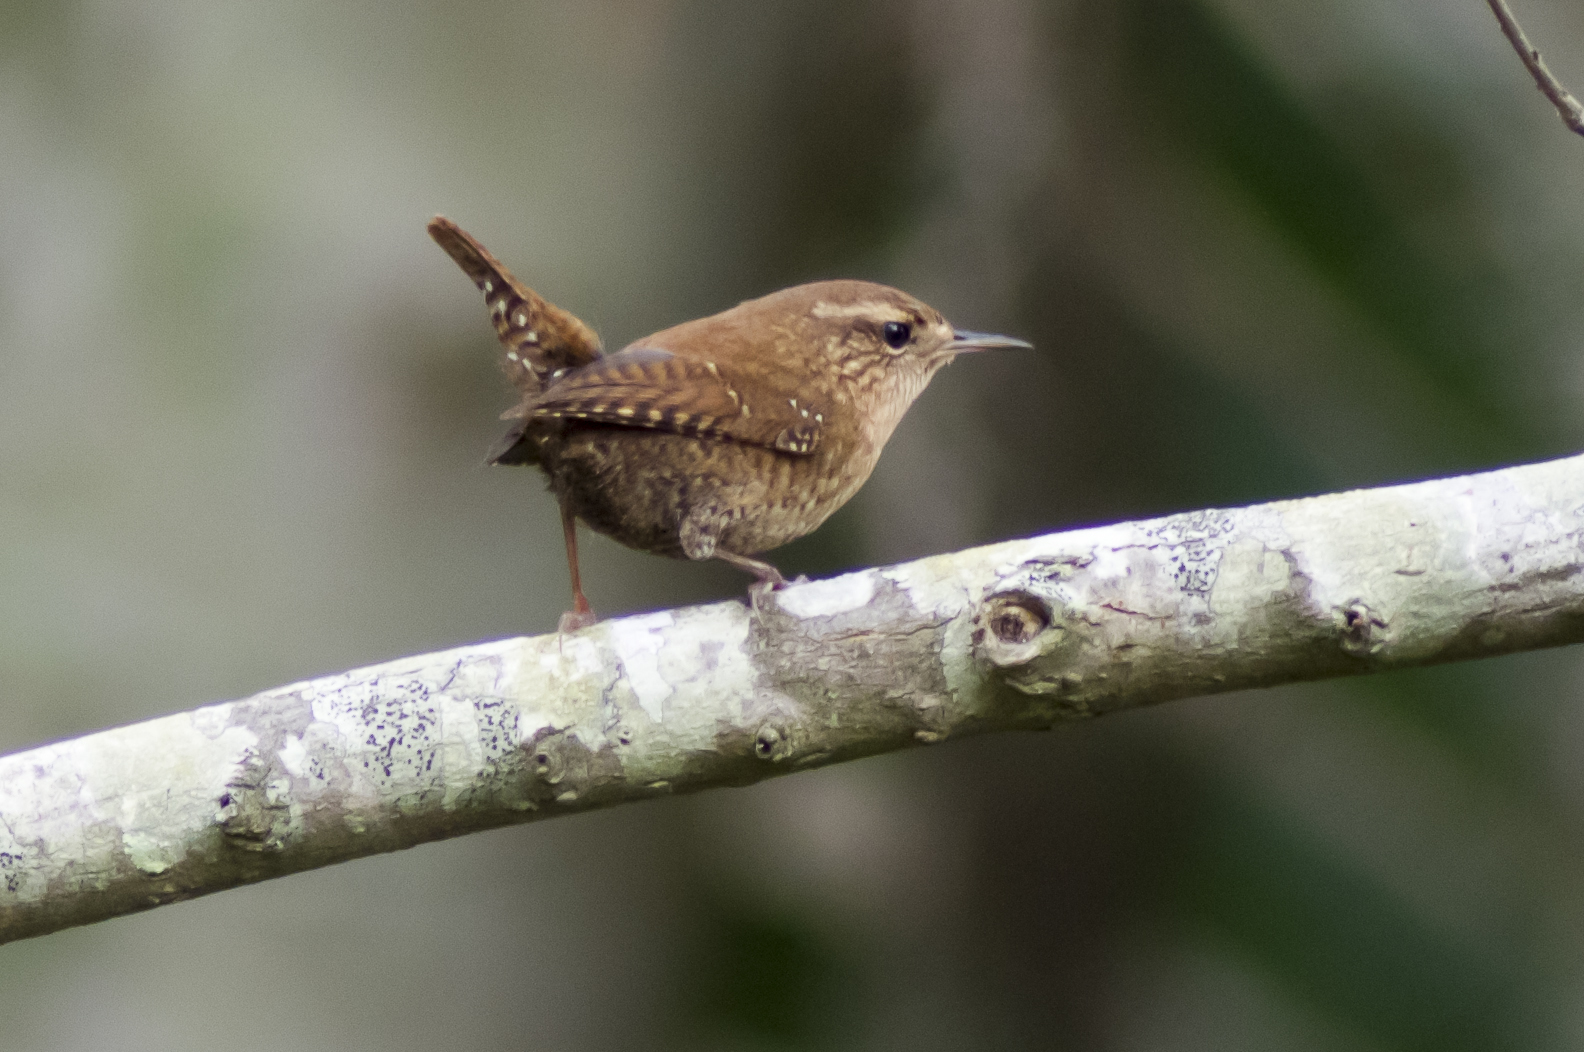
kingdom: Animalia
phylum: Chordata
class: Aves
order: Passeriformes
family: Troglodytidae
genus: Troglodytes
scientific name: Troglodytes hiemalis
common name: Winter wren
